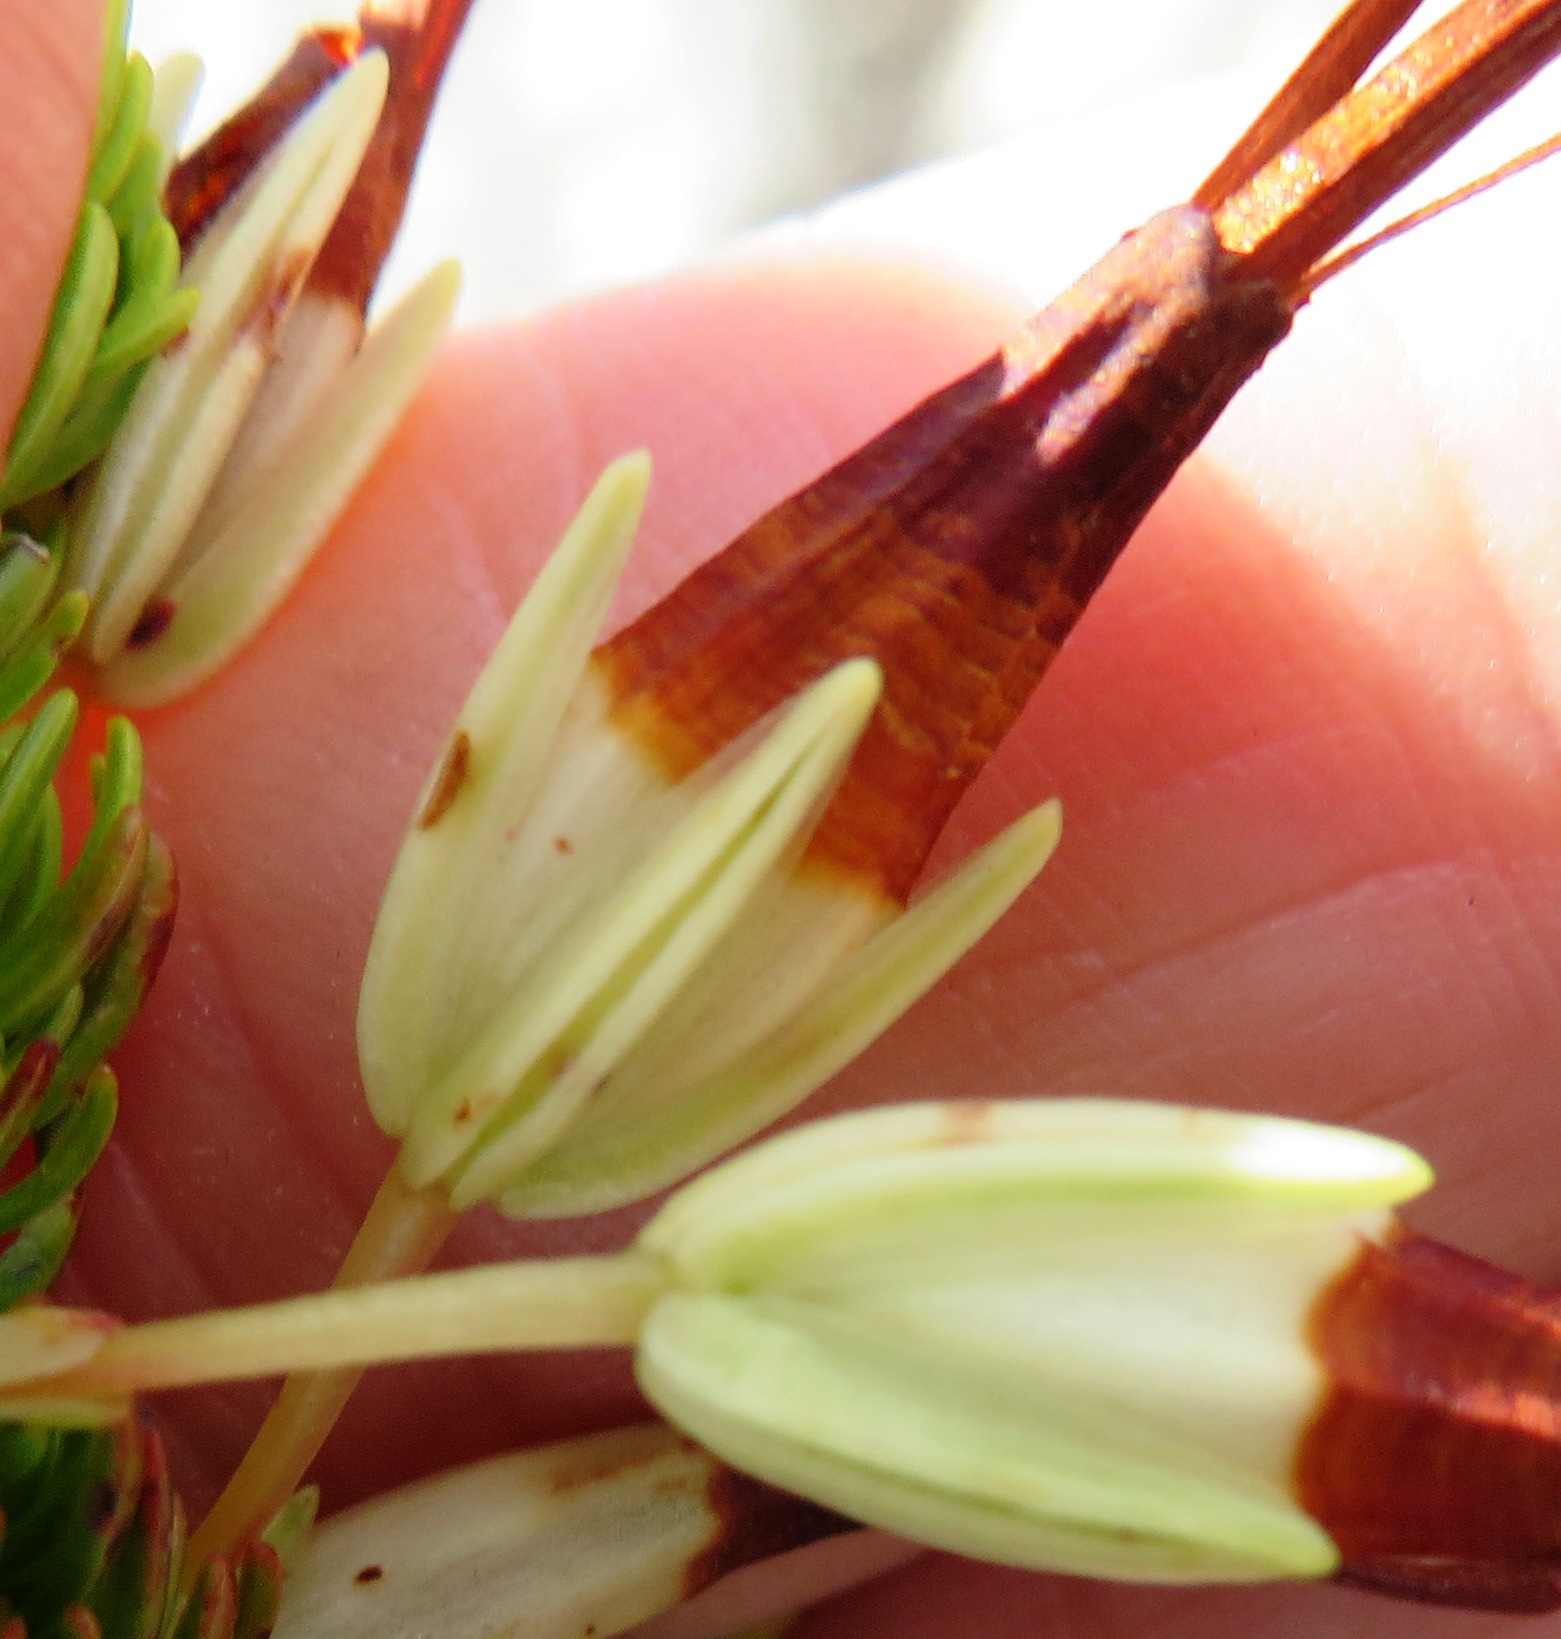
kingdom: Plantae
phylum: Tracheophyta
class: Magnoliopsida
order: Ericales
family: Ericaceae
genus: Erica
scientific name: Erica plukenetii
